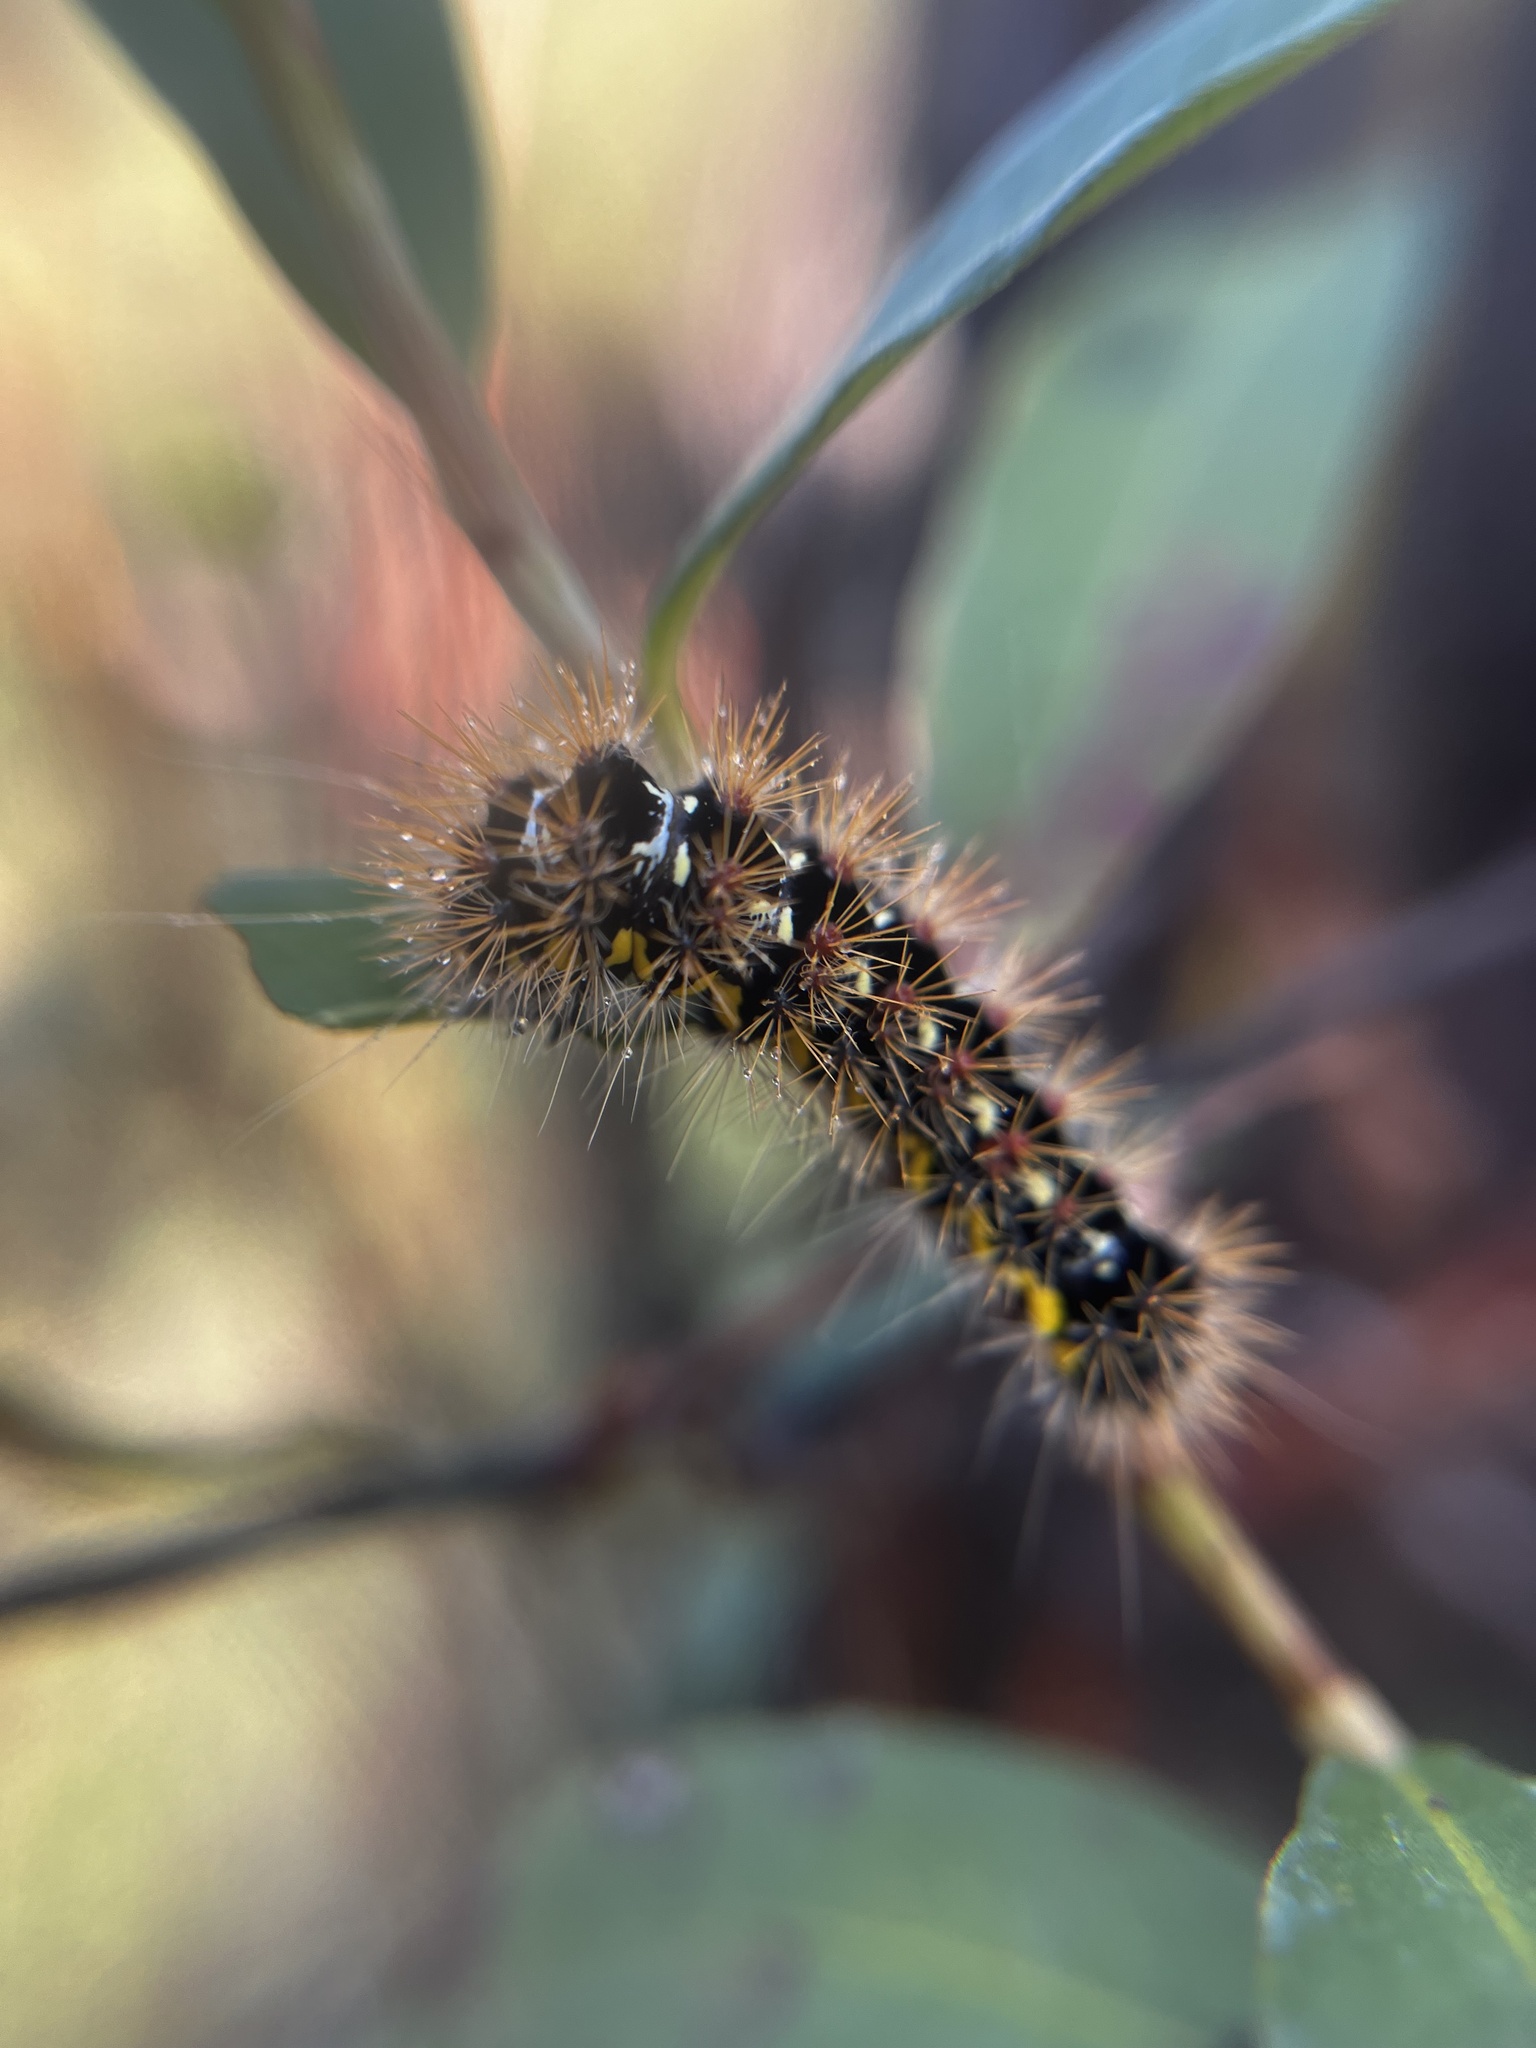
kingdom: Animalia
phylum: Arthropoda
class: Insecta
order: Lepidoptera
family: Noctuidae
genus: Acronicta
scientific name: Acronicta oblinita
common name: Smeared dagger
